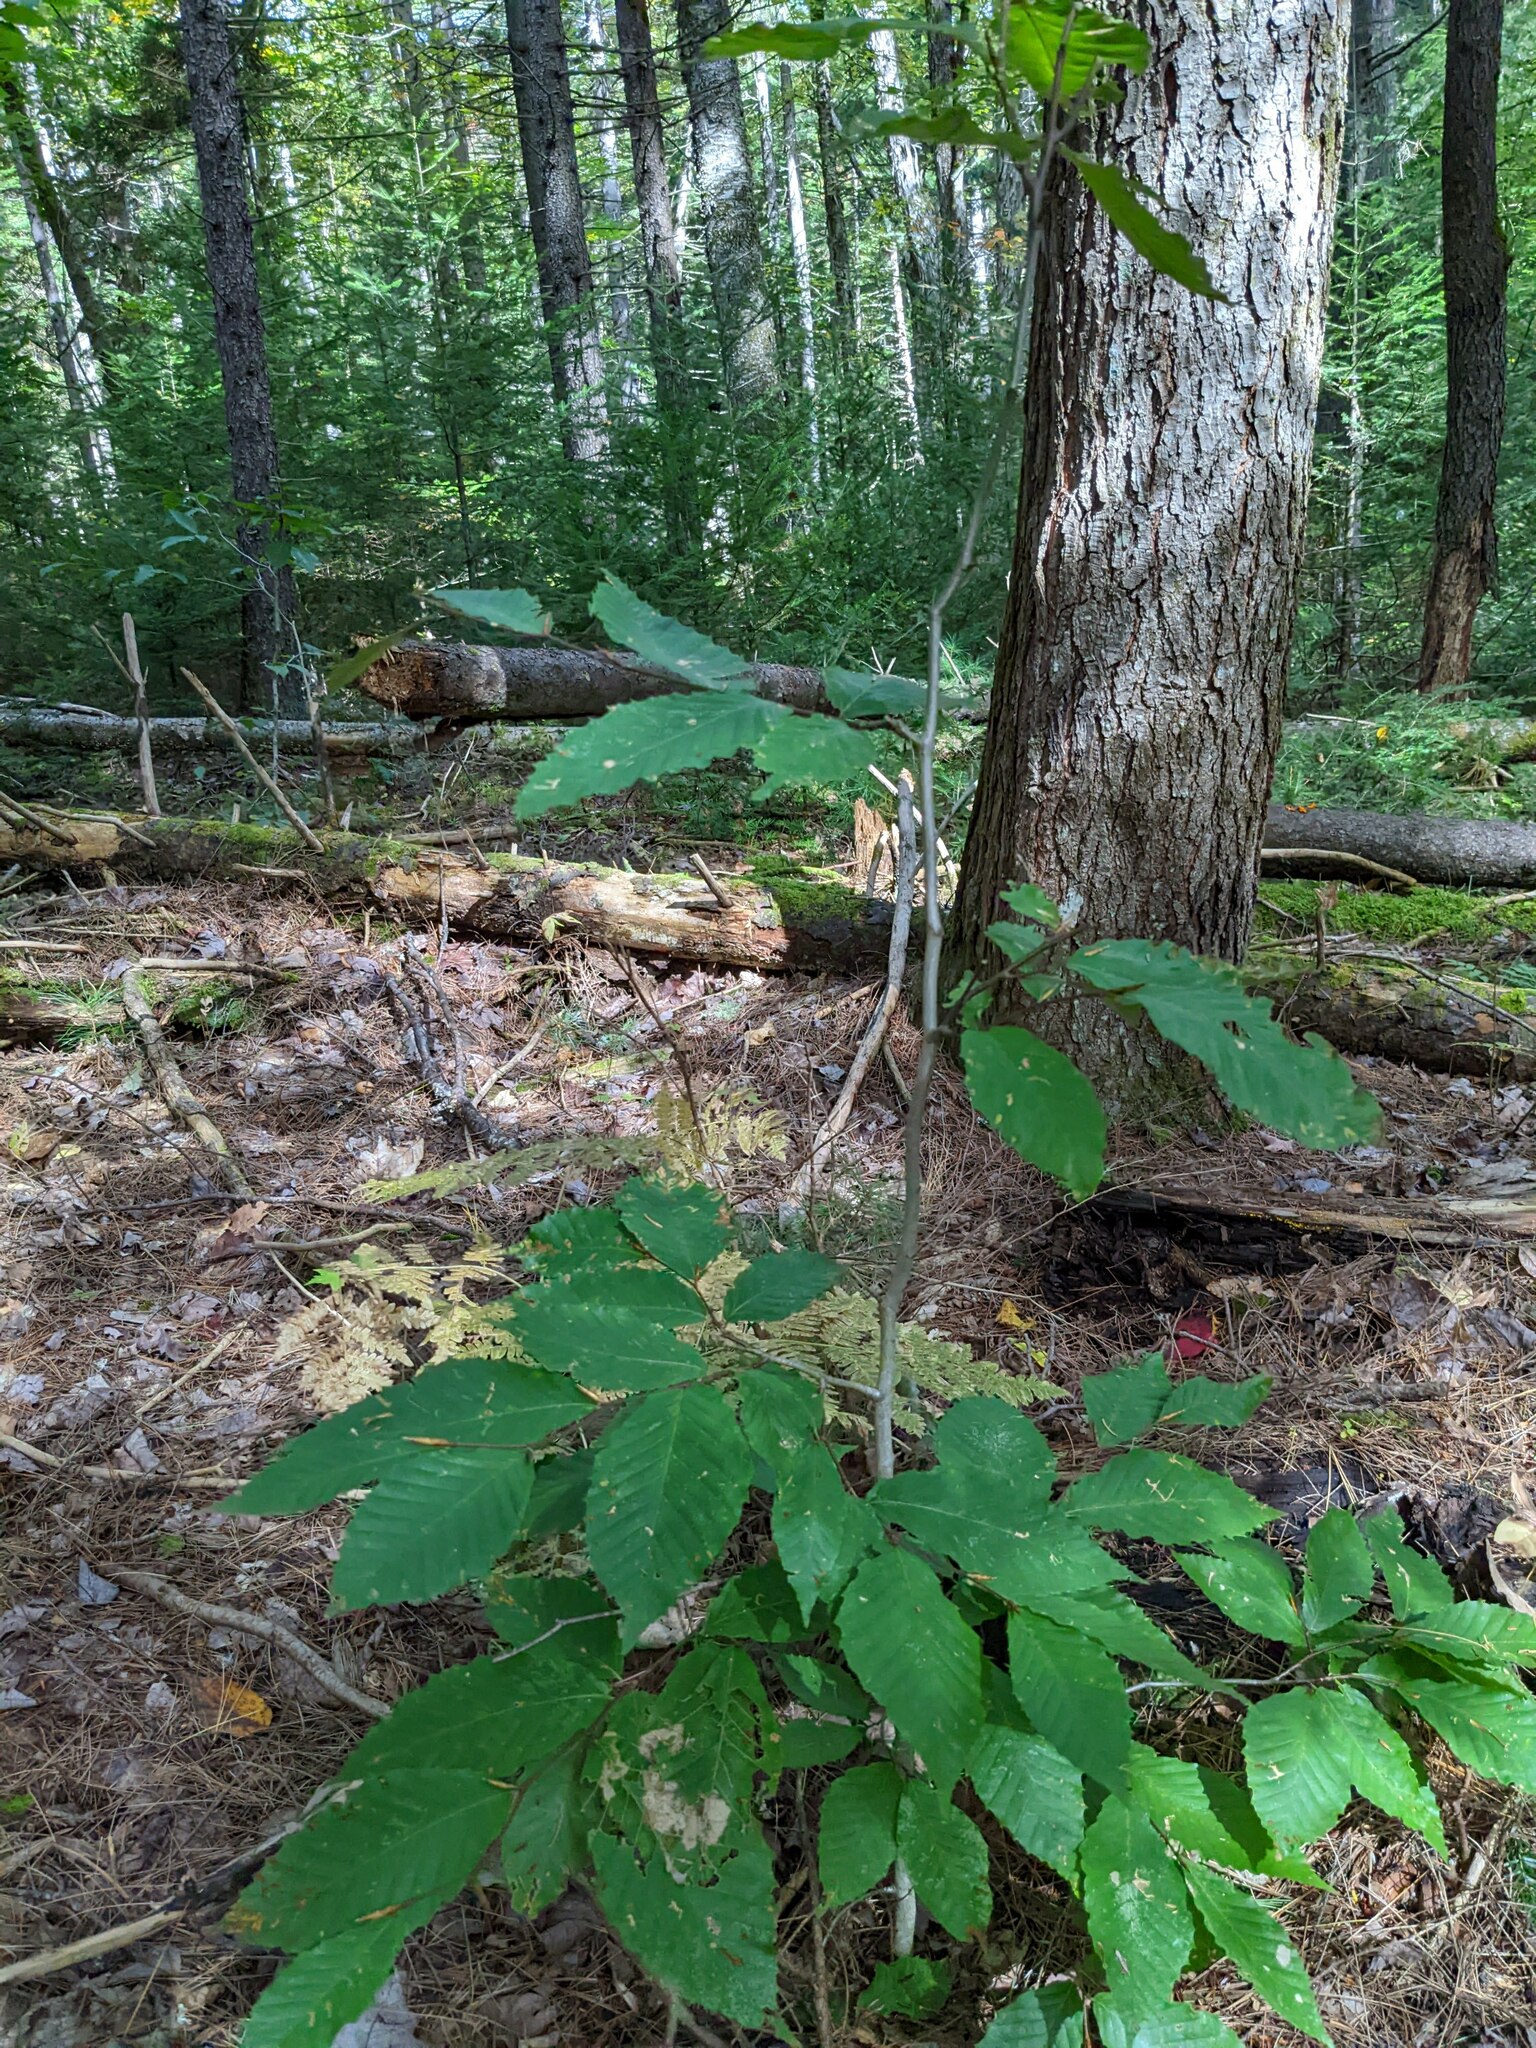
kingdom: Plantae
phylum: Tracheophyta
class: Magnoliopsida
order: Fagales
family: Fagaceae
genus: Fagus
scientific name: Fagus grandifolia
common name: American beech
